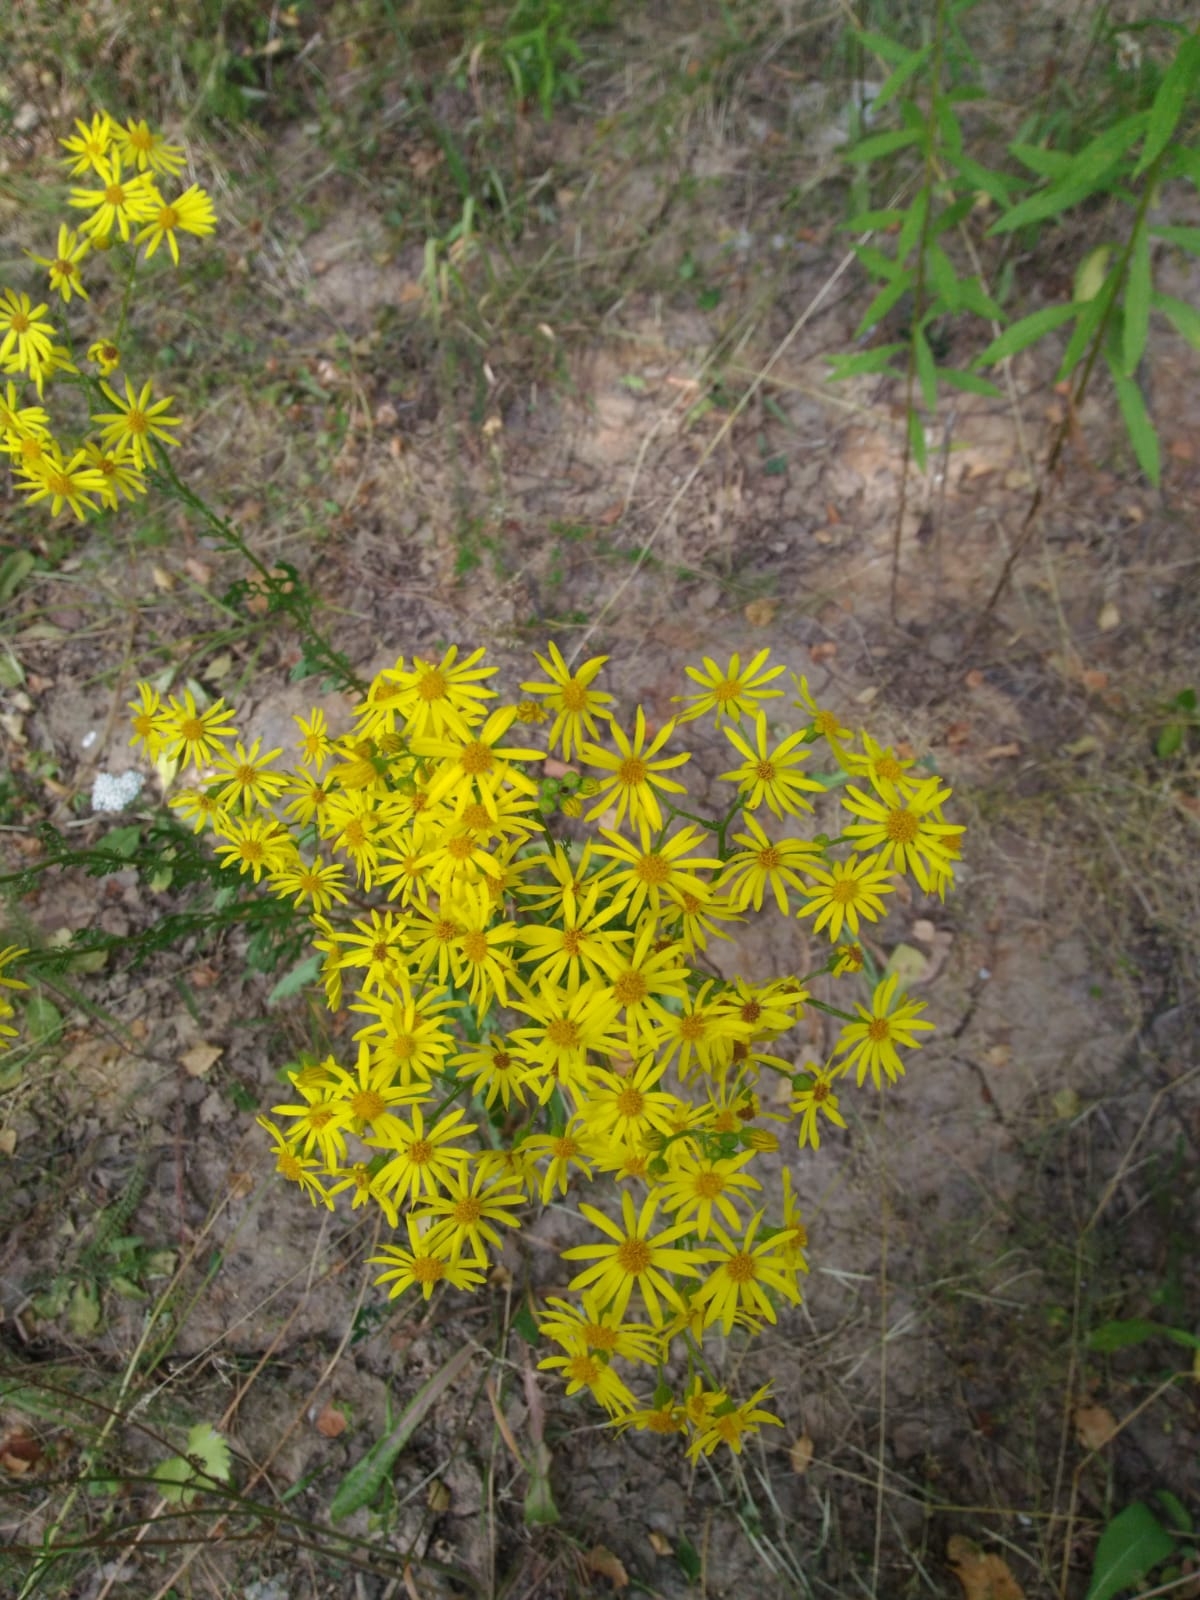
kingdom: Plantae
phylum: Tracheophyta
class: Magnoliopsida
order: Asterales
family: Asteraceae
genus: Jacobaea
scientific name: Jacobaea vulgaris
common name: Stinking willie
